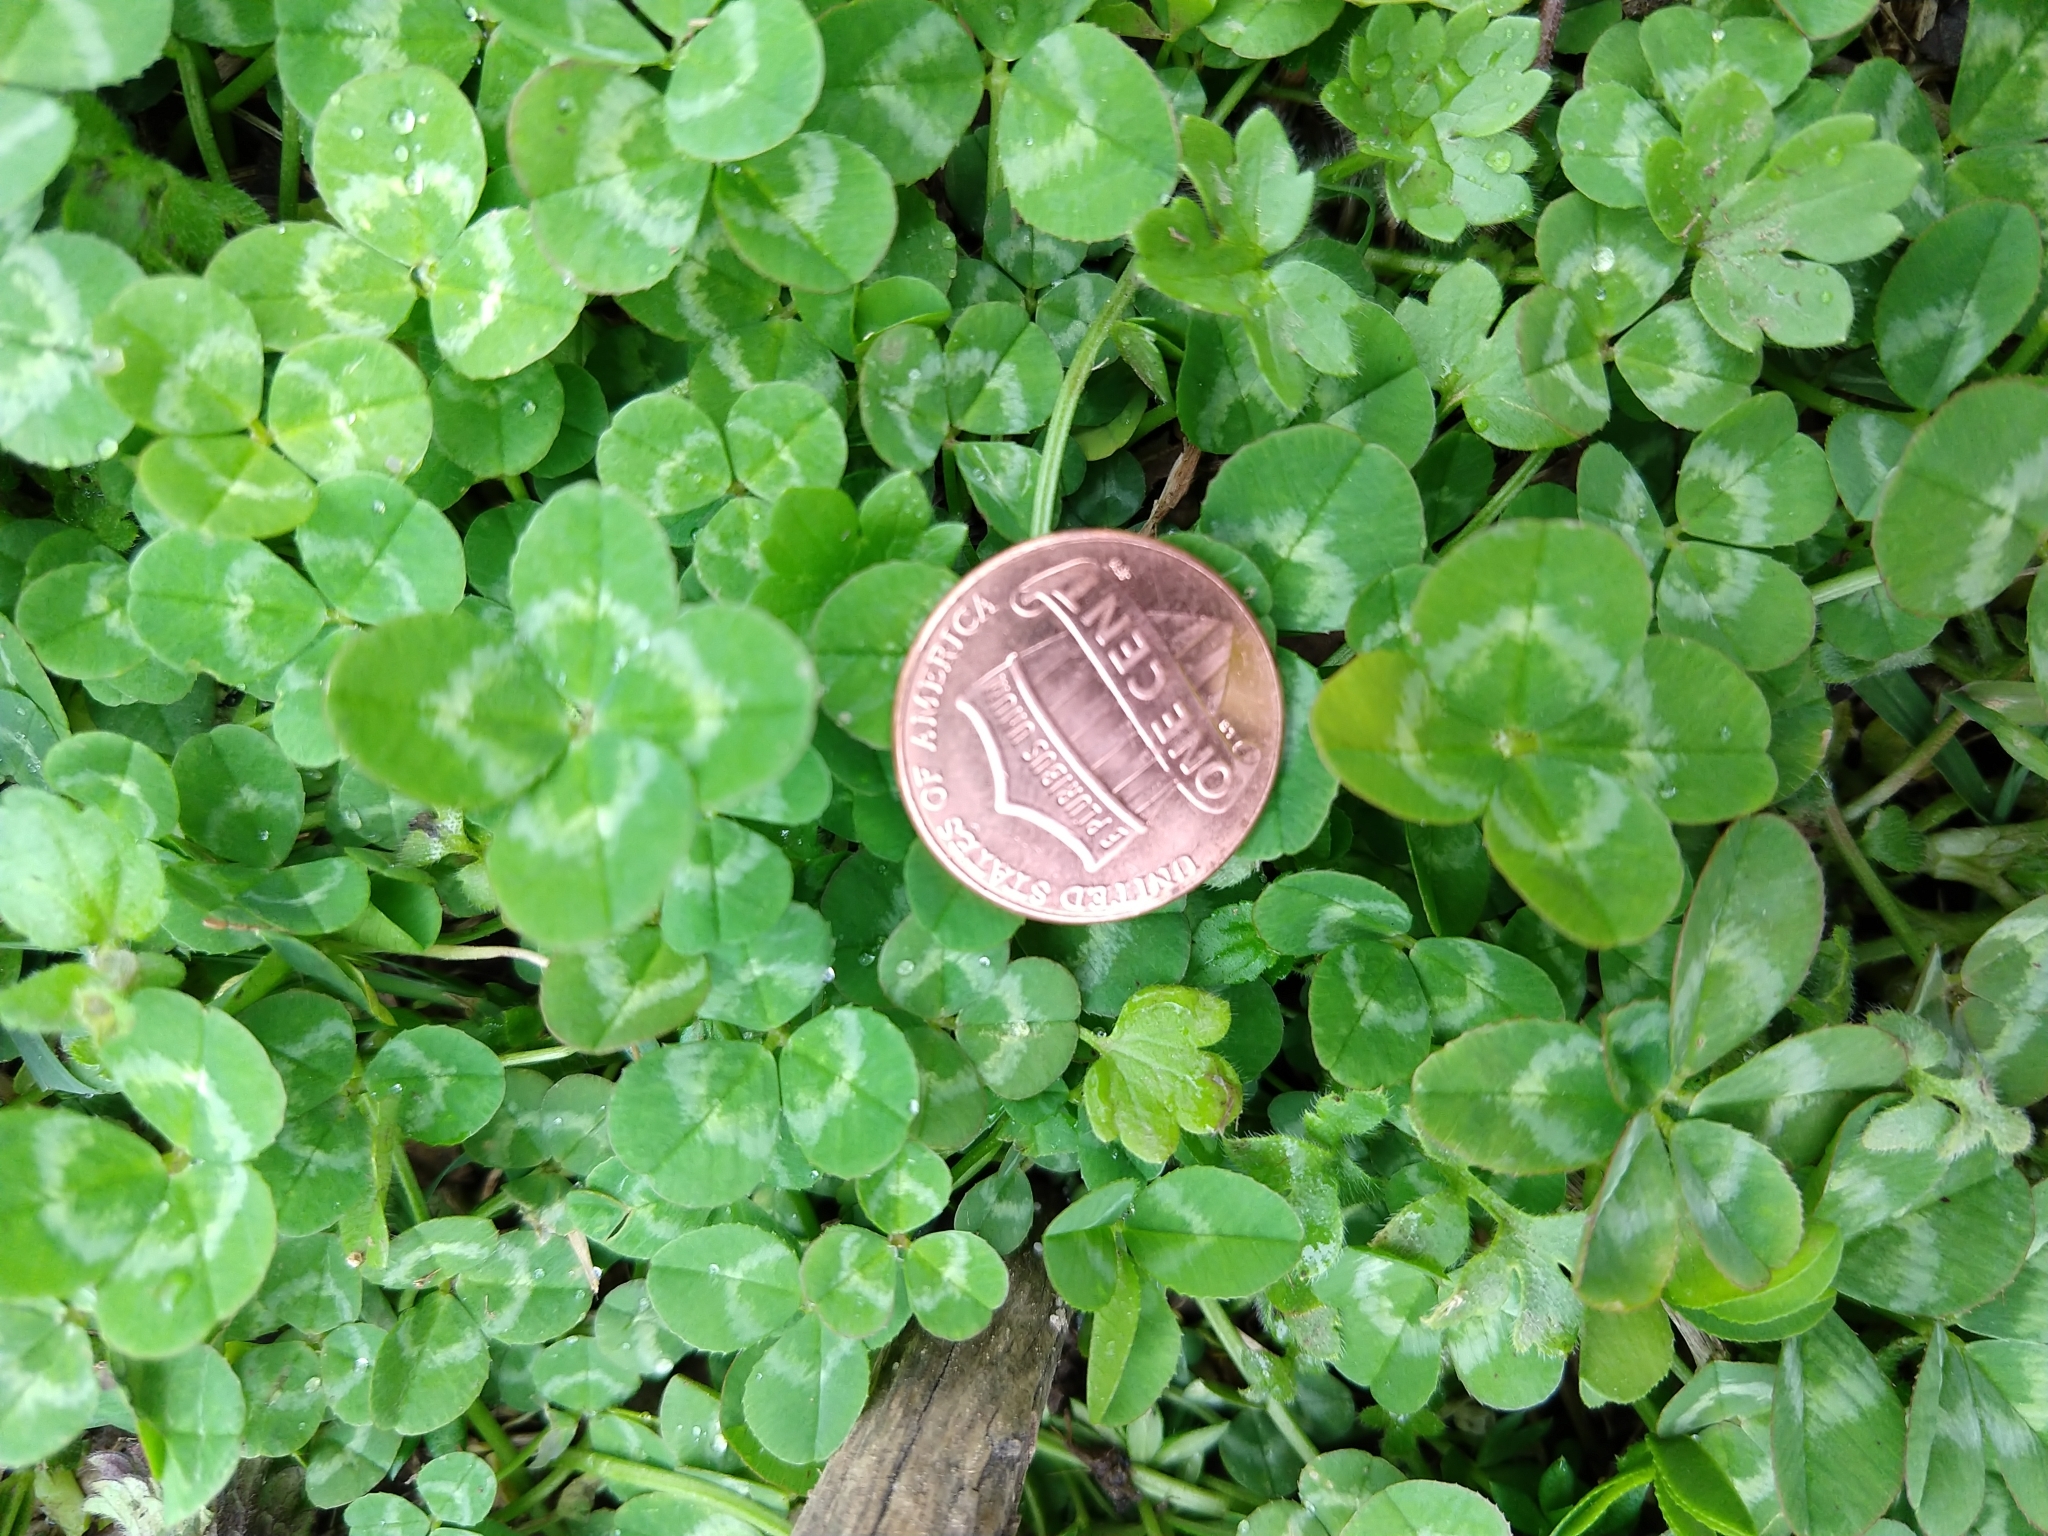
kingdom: Plantae
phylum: Tracheophyta
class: Magnoliopsida
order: Fabales
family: Fabaceae
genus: Trifolium
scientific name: Trifolium repens
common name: White clover
